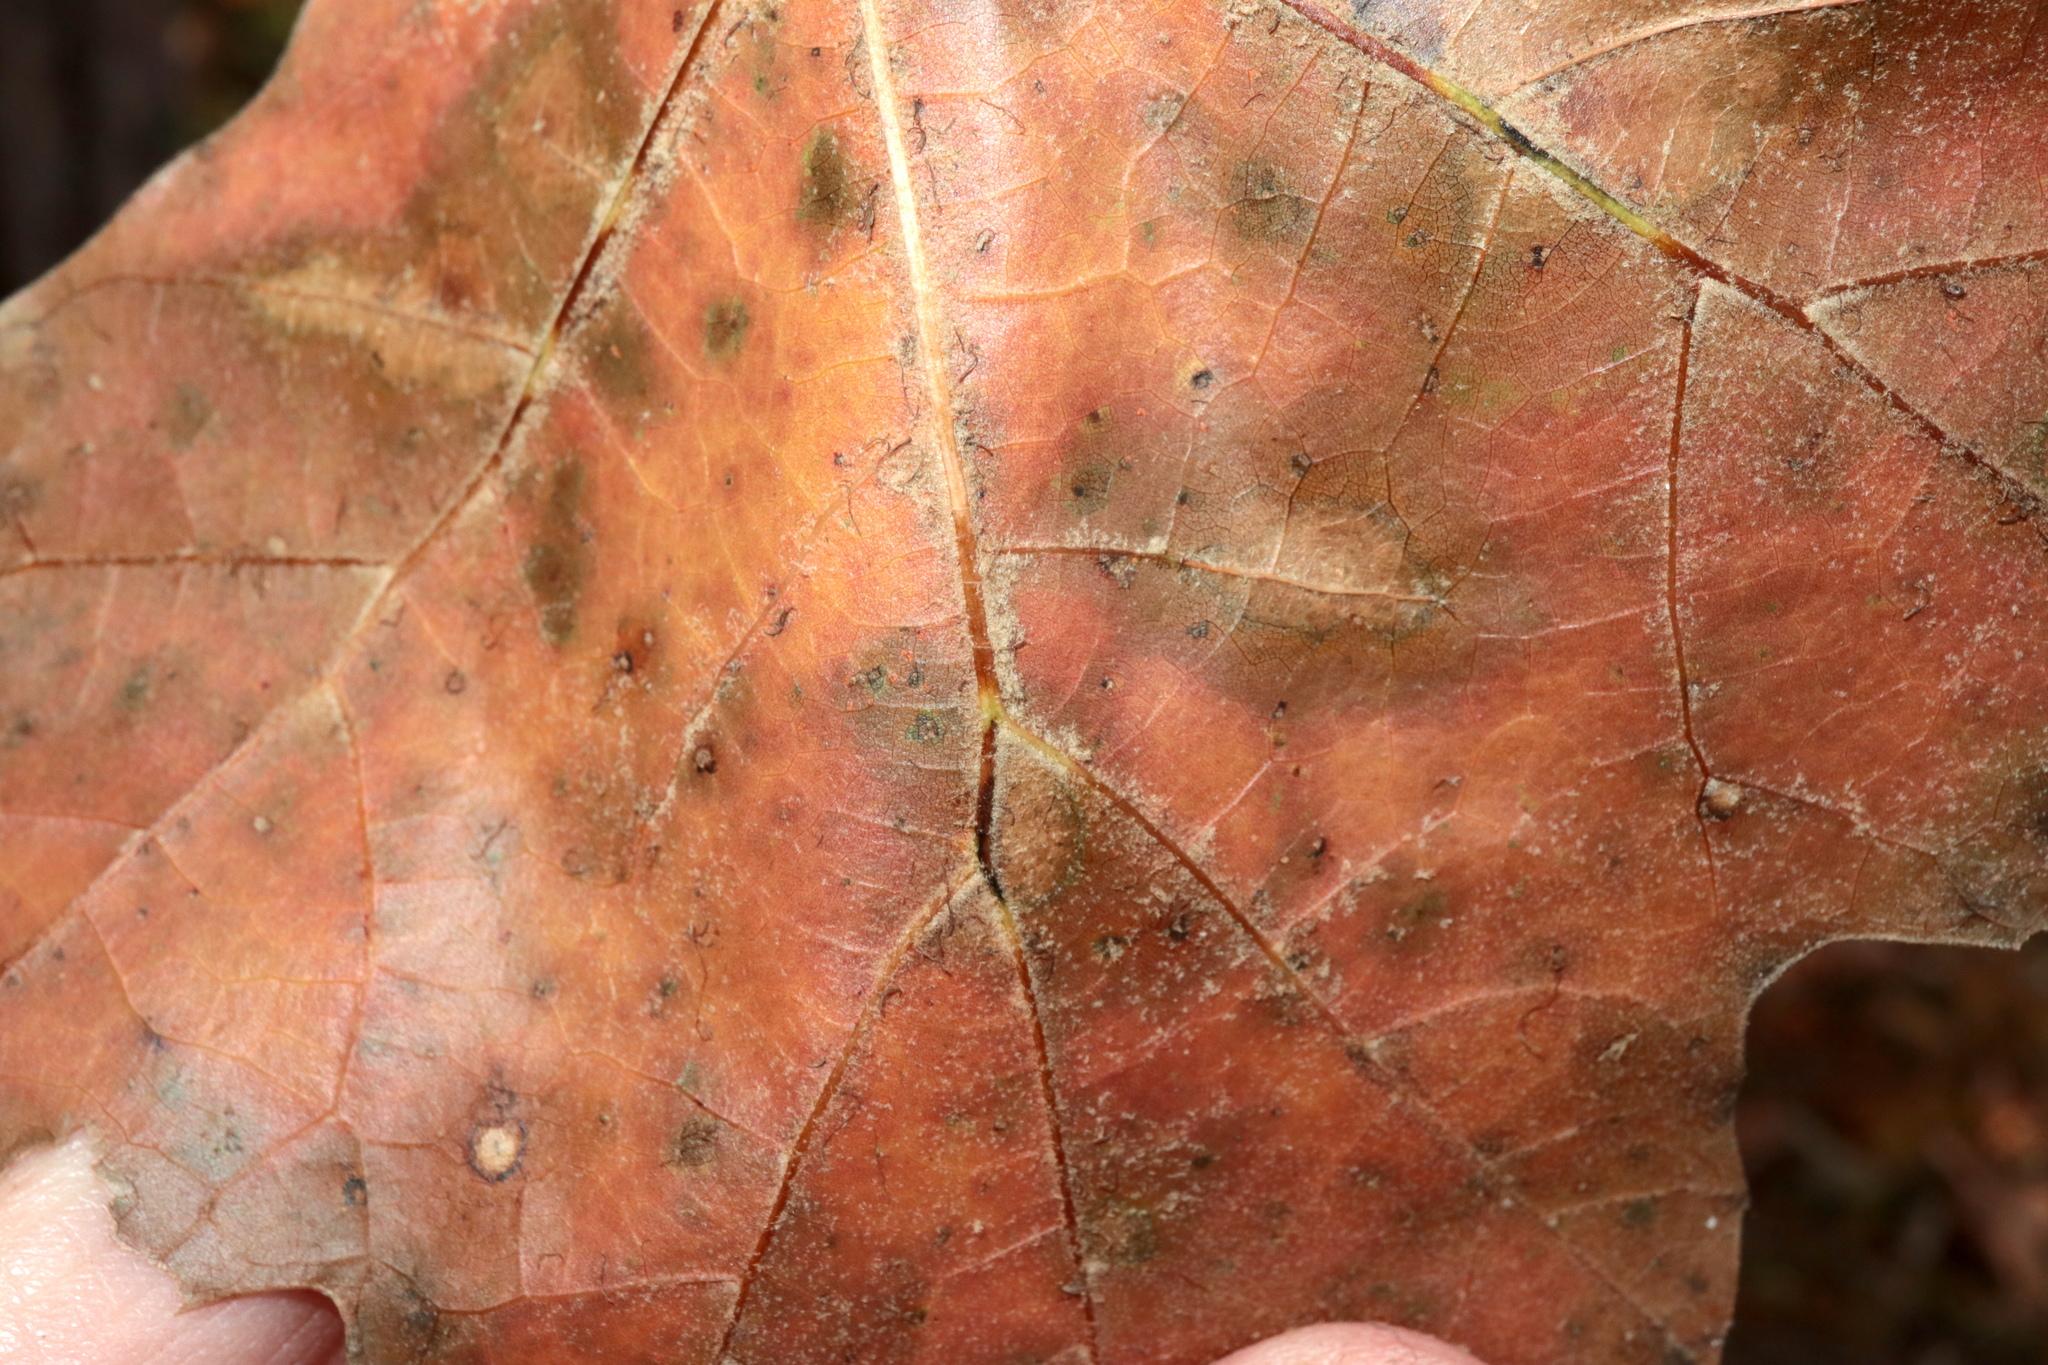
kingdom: Plantae
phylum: Tracheophyta
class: Magnoliopsida
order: Fagales
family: Fagaceae
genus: Quercus
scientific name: Quercus velutina
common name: Black oak
